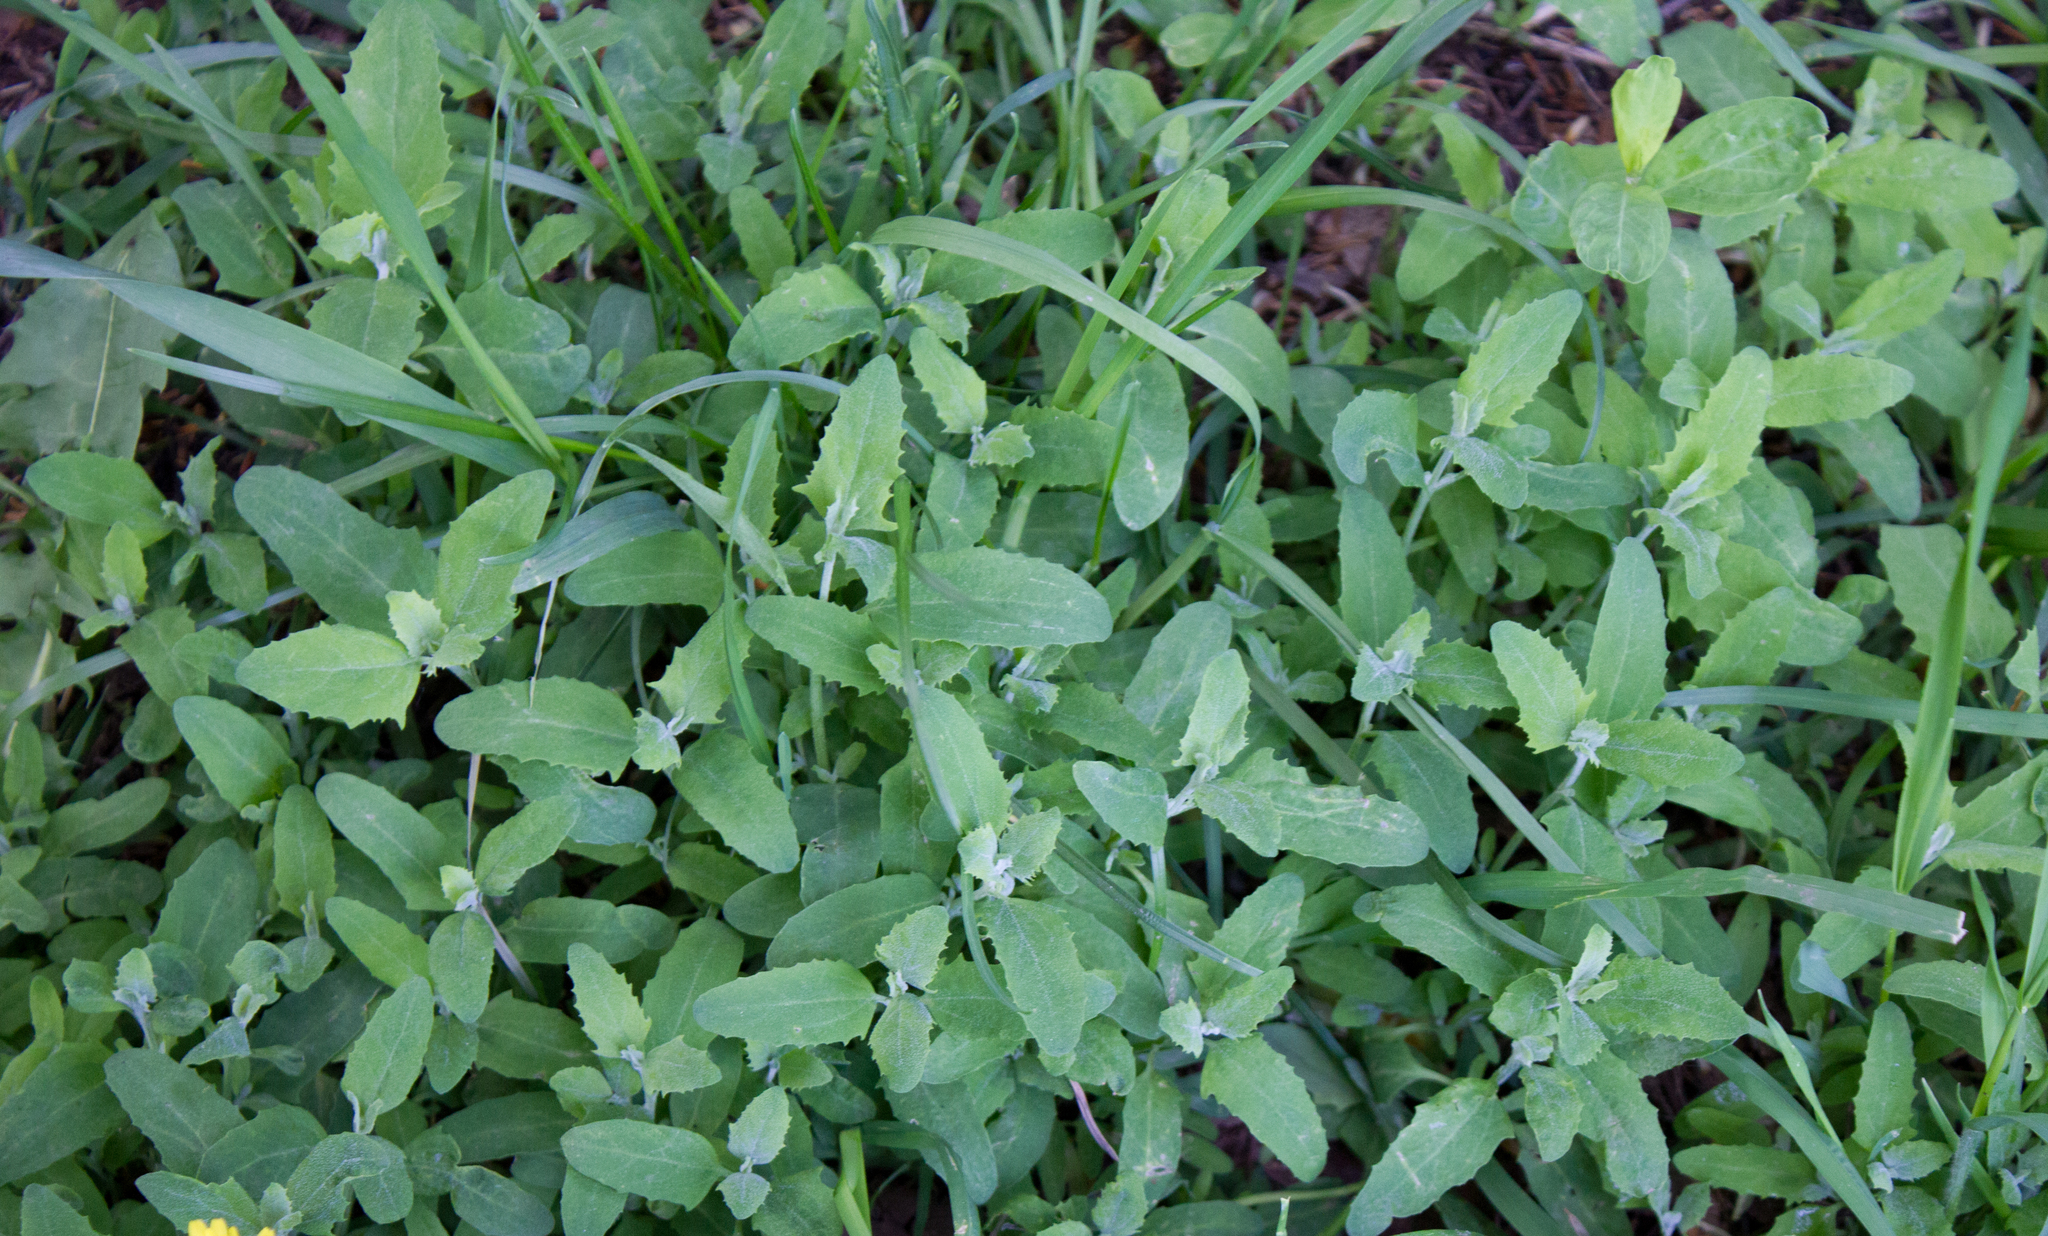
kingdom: Plantae
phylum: Tracheophyta
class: Magnoliopsida
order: Caryophyllales
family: Amaranthaceae
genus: Atriplex
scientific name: Atriplex patula
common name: Common orache
